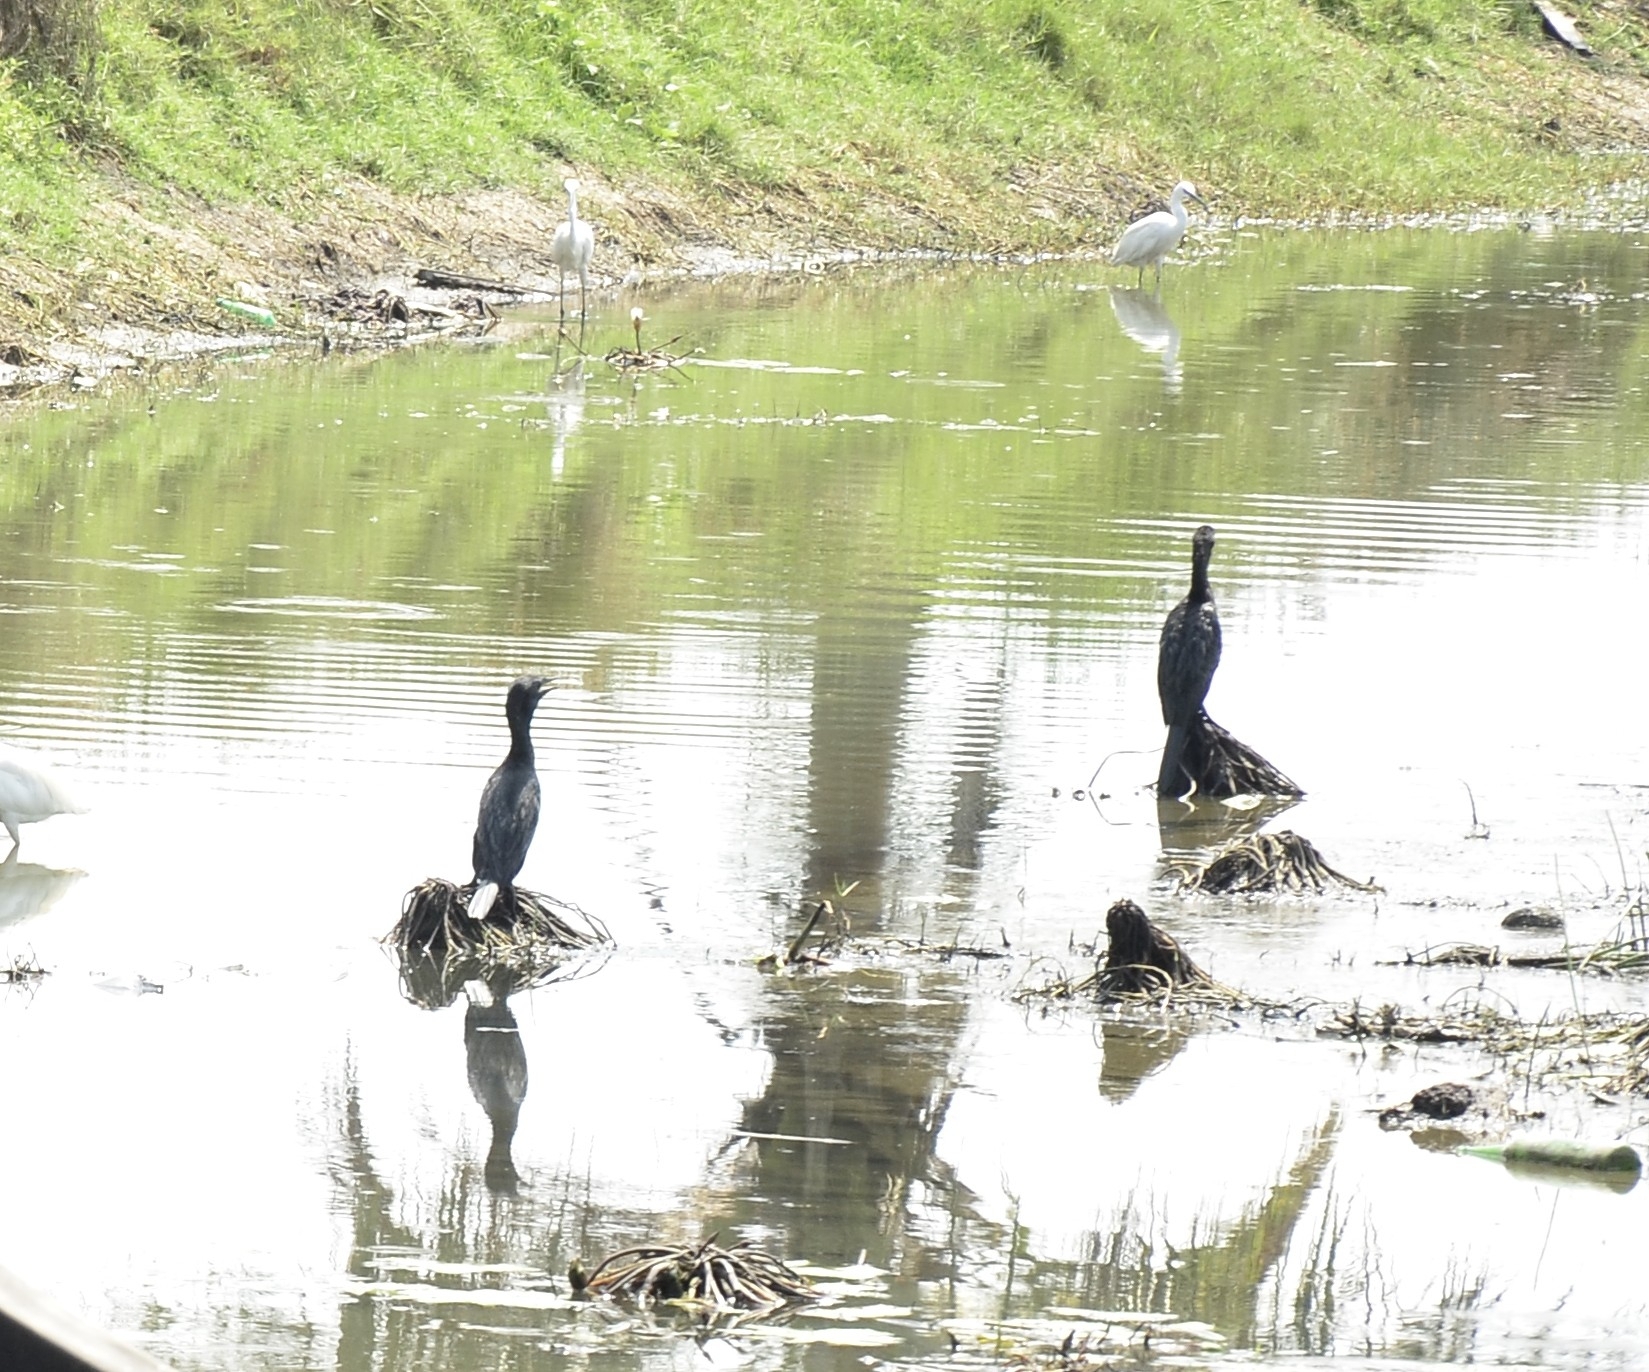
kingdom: Animalia
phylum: Chordata
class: Aves
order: Suliformes
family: Phalacrocoracidae
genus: Microcarbo
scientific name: Microcarbo niger
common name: Little cormorant
